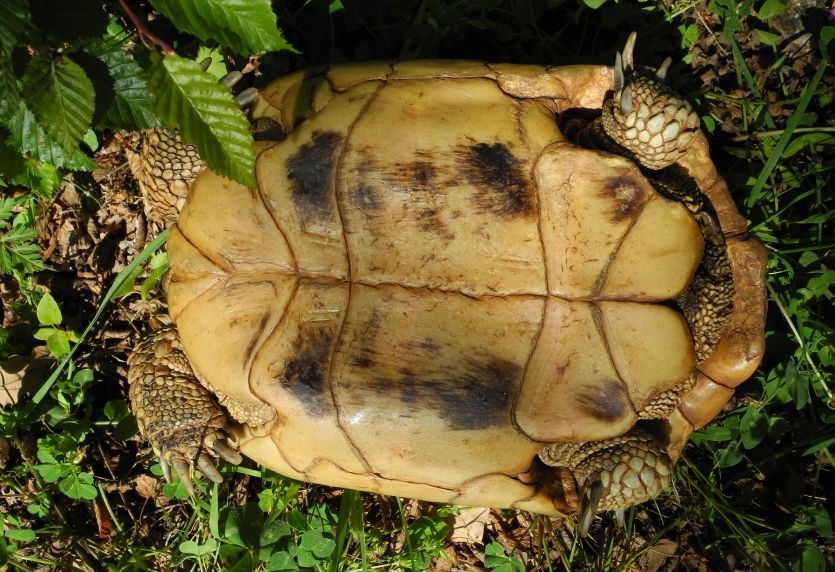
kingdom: Animalia
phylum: Chordata
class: Testudines
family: Testudinidae
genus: Testudo
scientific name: Testudo hermanni
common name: Hermann's tortoise
